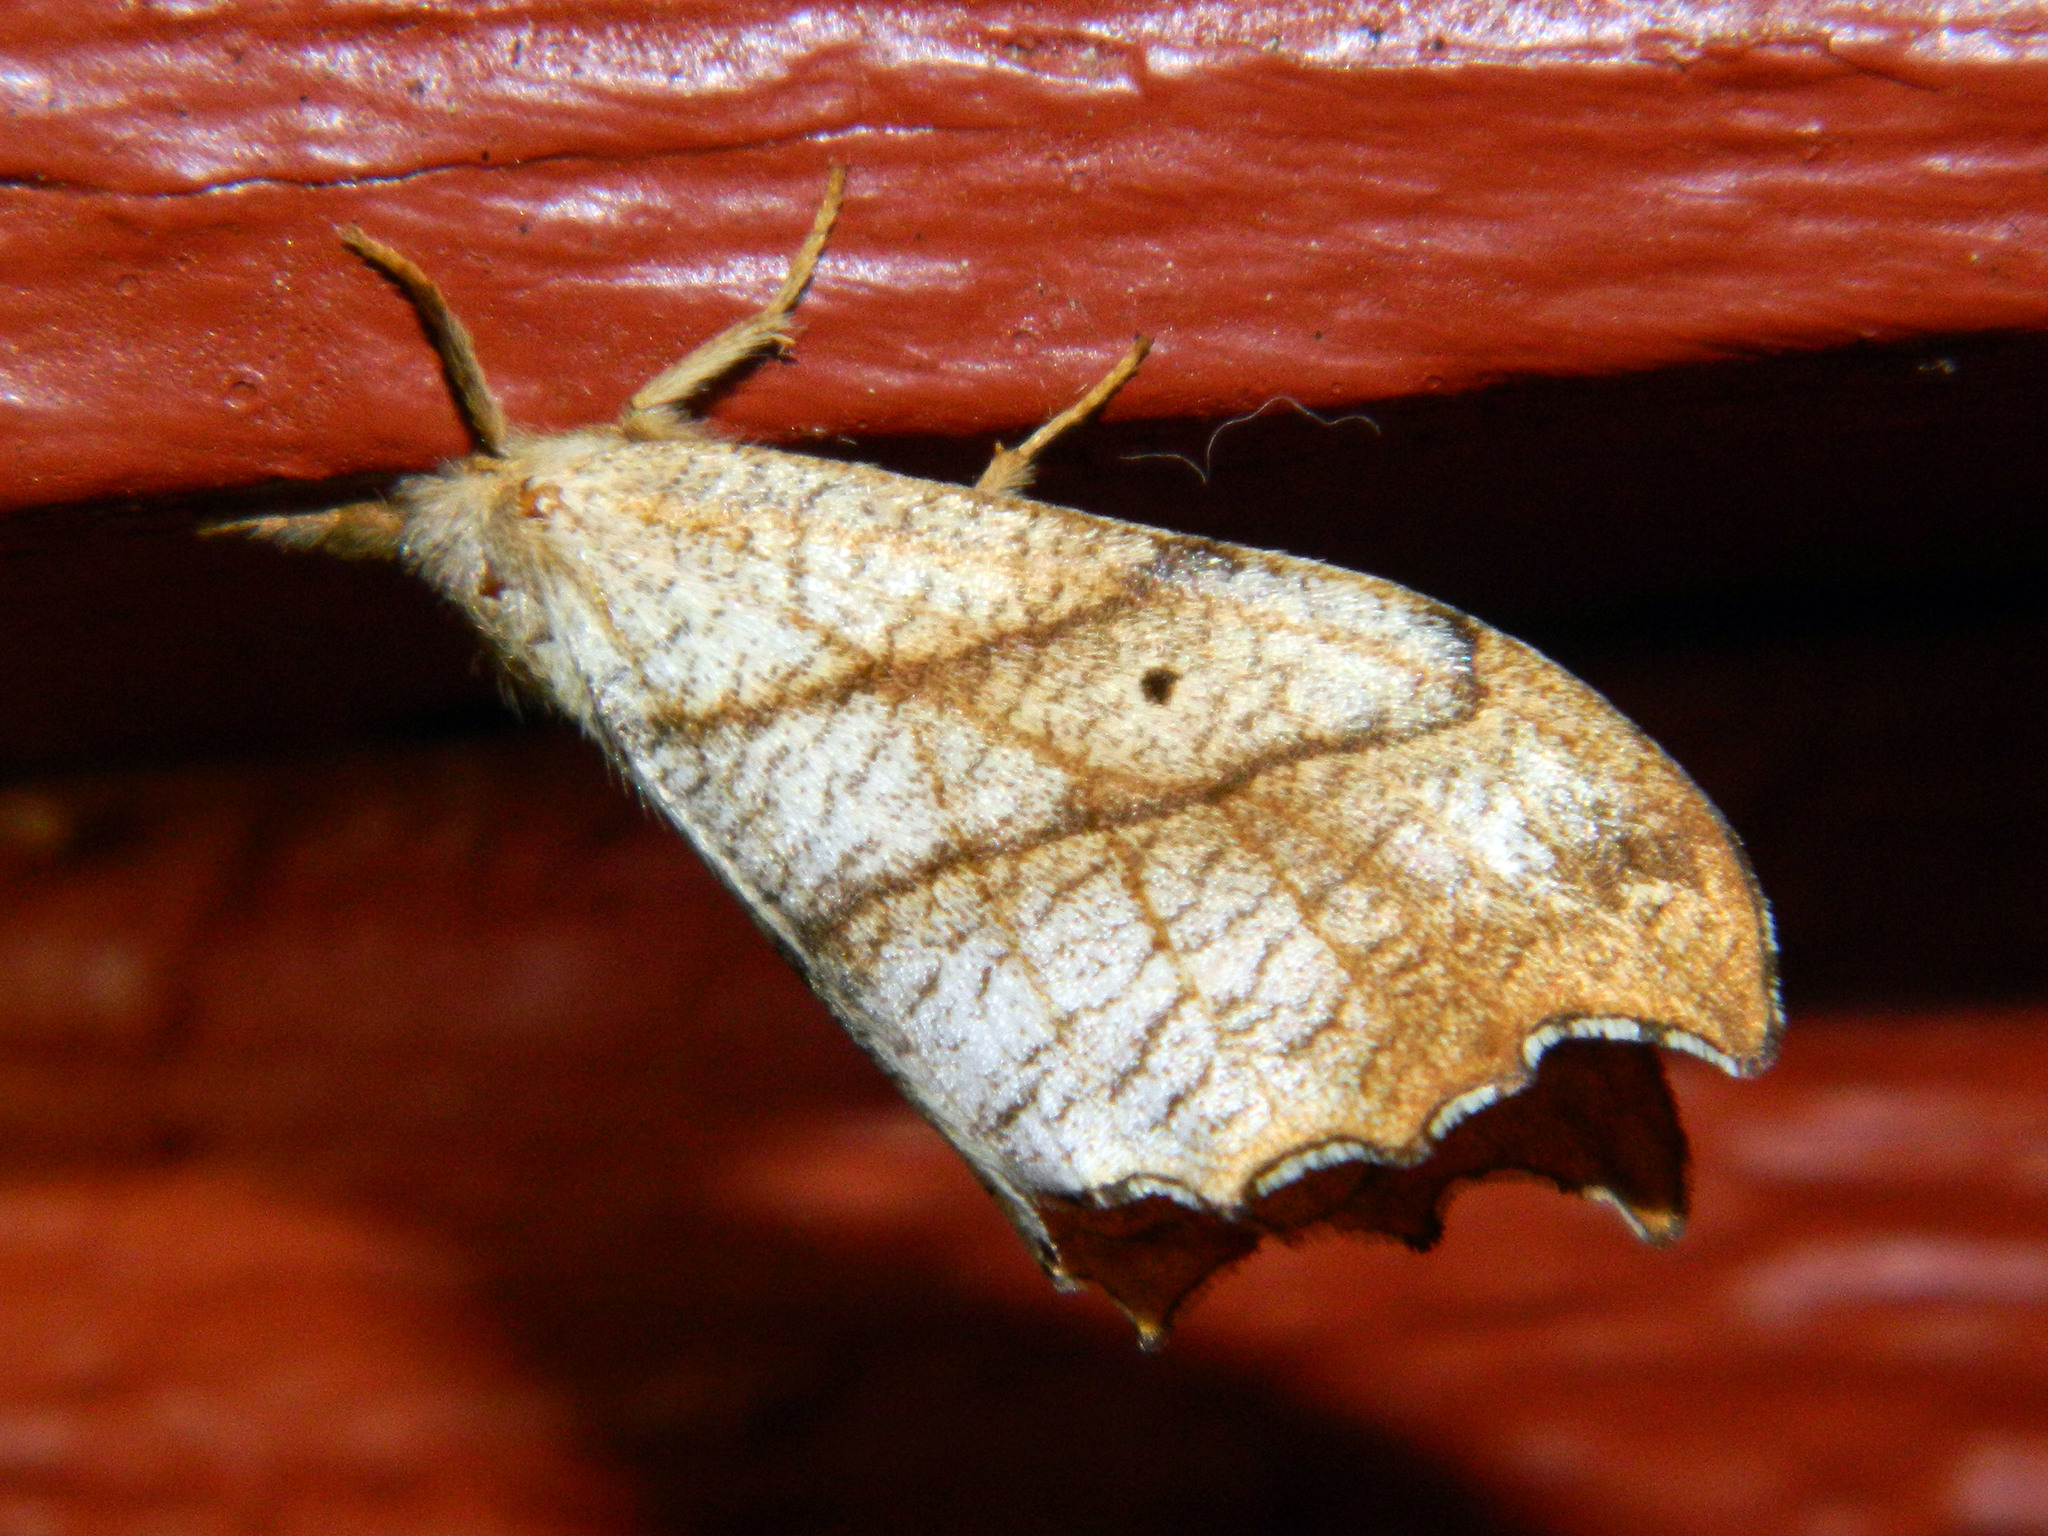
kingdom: Animalia
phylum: Arthropoda
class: Insecta
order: Lepidoptera
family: Drepanidae
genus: Falcaria
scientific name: Falcaria bilineata
